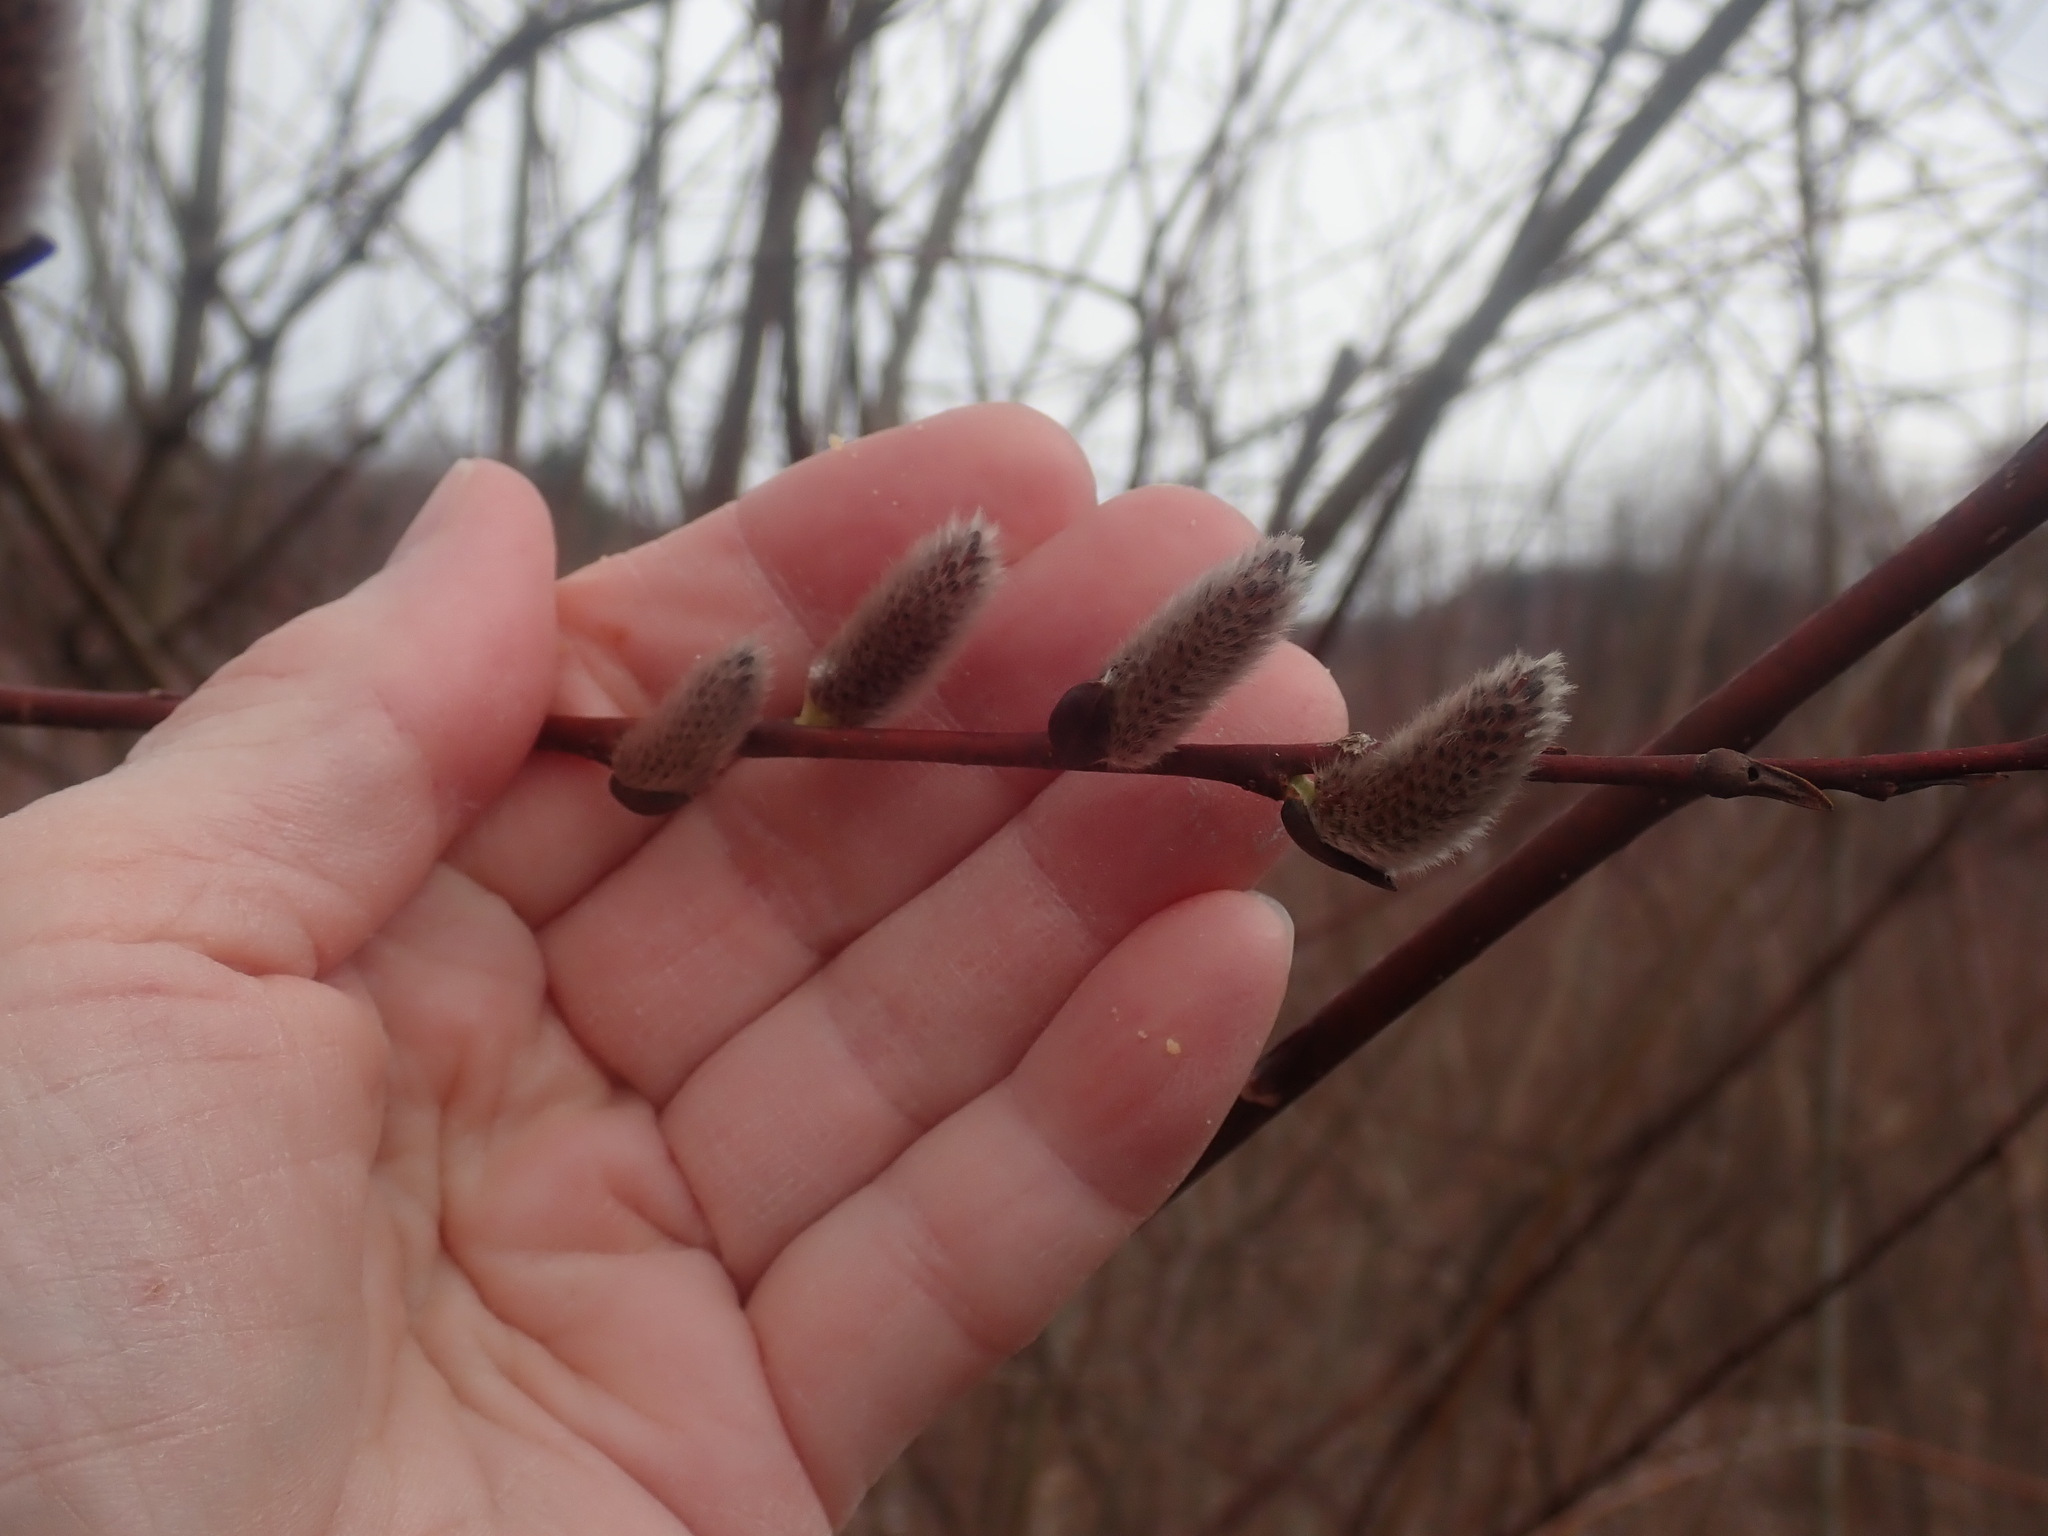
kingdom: Plantae
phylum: Tracheophyta
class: Magnoliopsida
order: Malpighiales
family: Salicaceae
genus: Salix
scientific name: Salix
